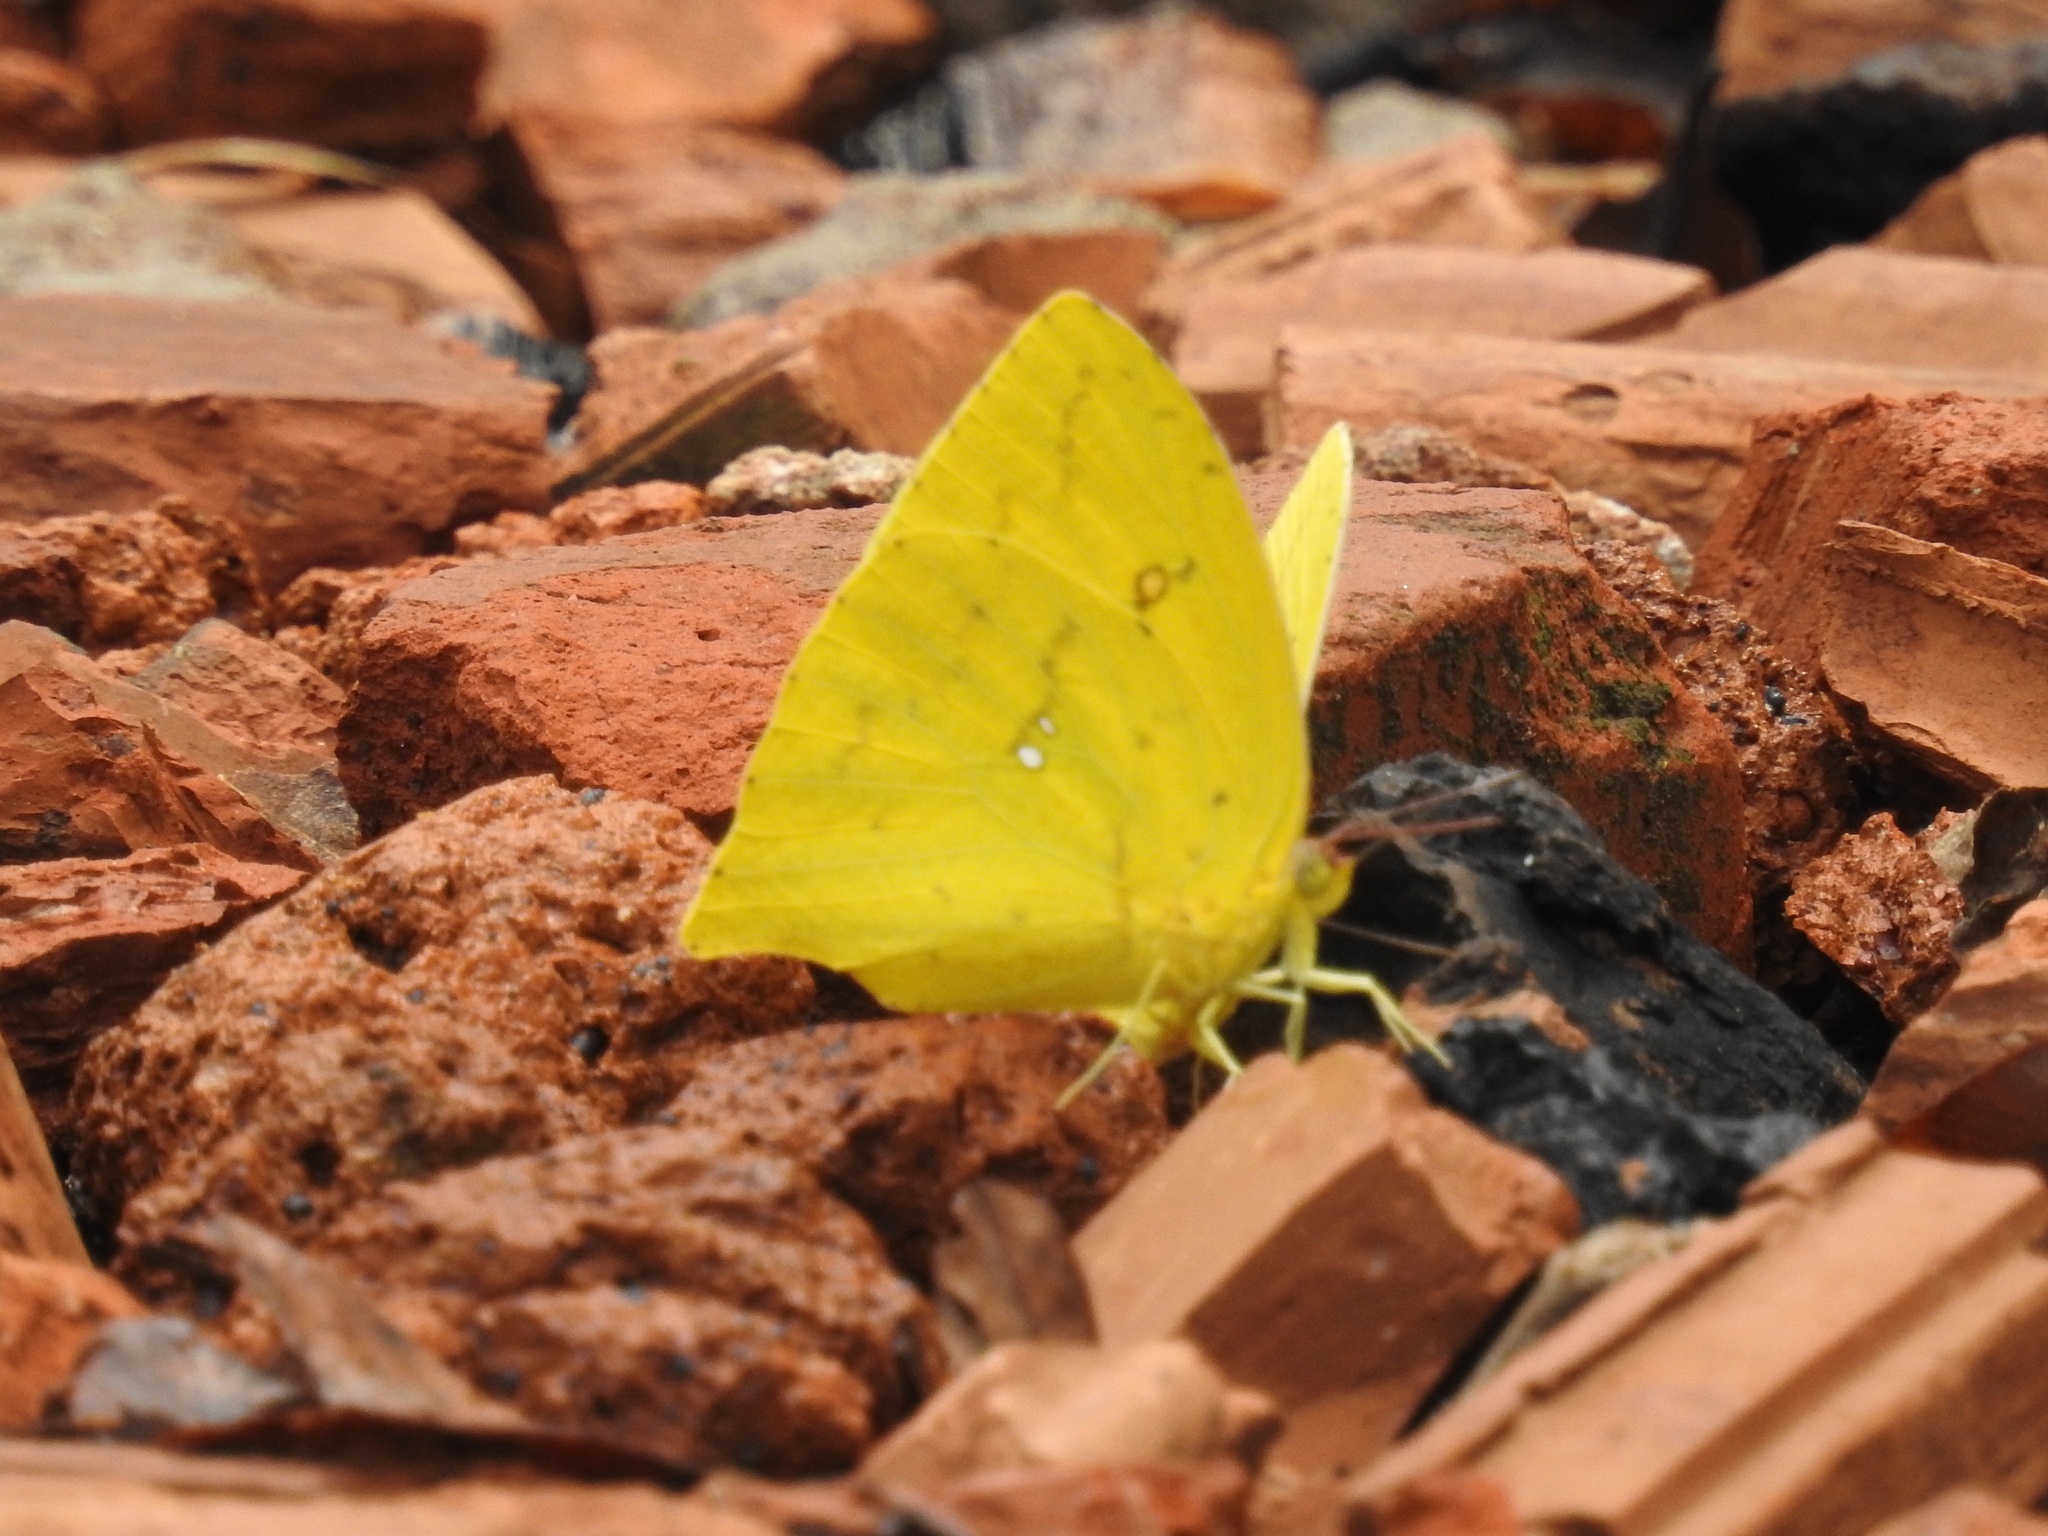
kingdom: Animalia
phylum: Arthropoda
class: Insecta
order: Lepidoptera
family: Pieridae
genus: Phoebis
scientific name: Phoebis neocypris
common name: Tailed sulphur
